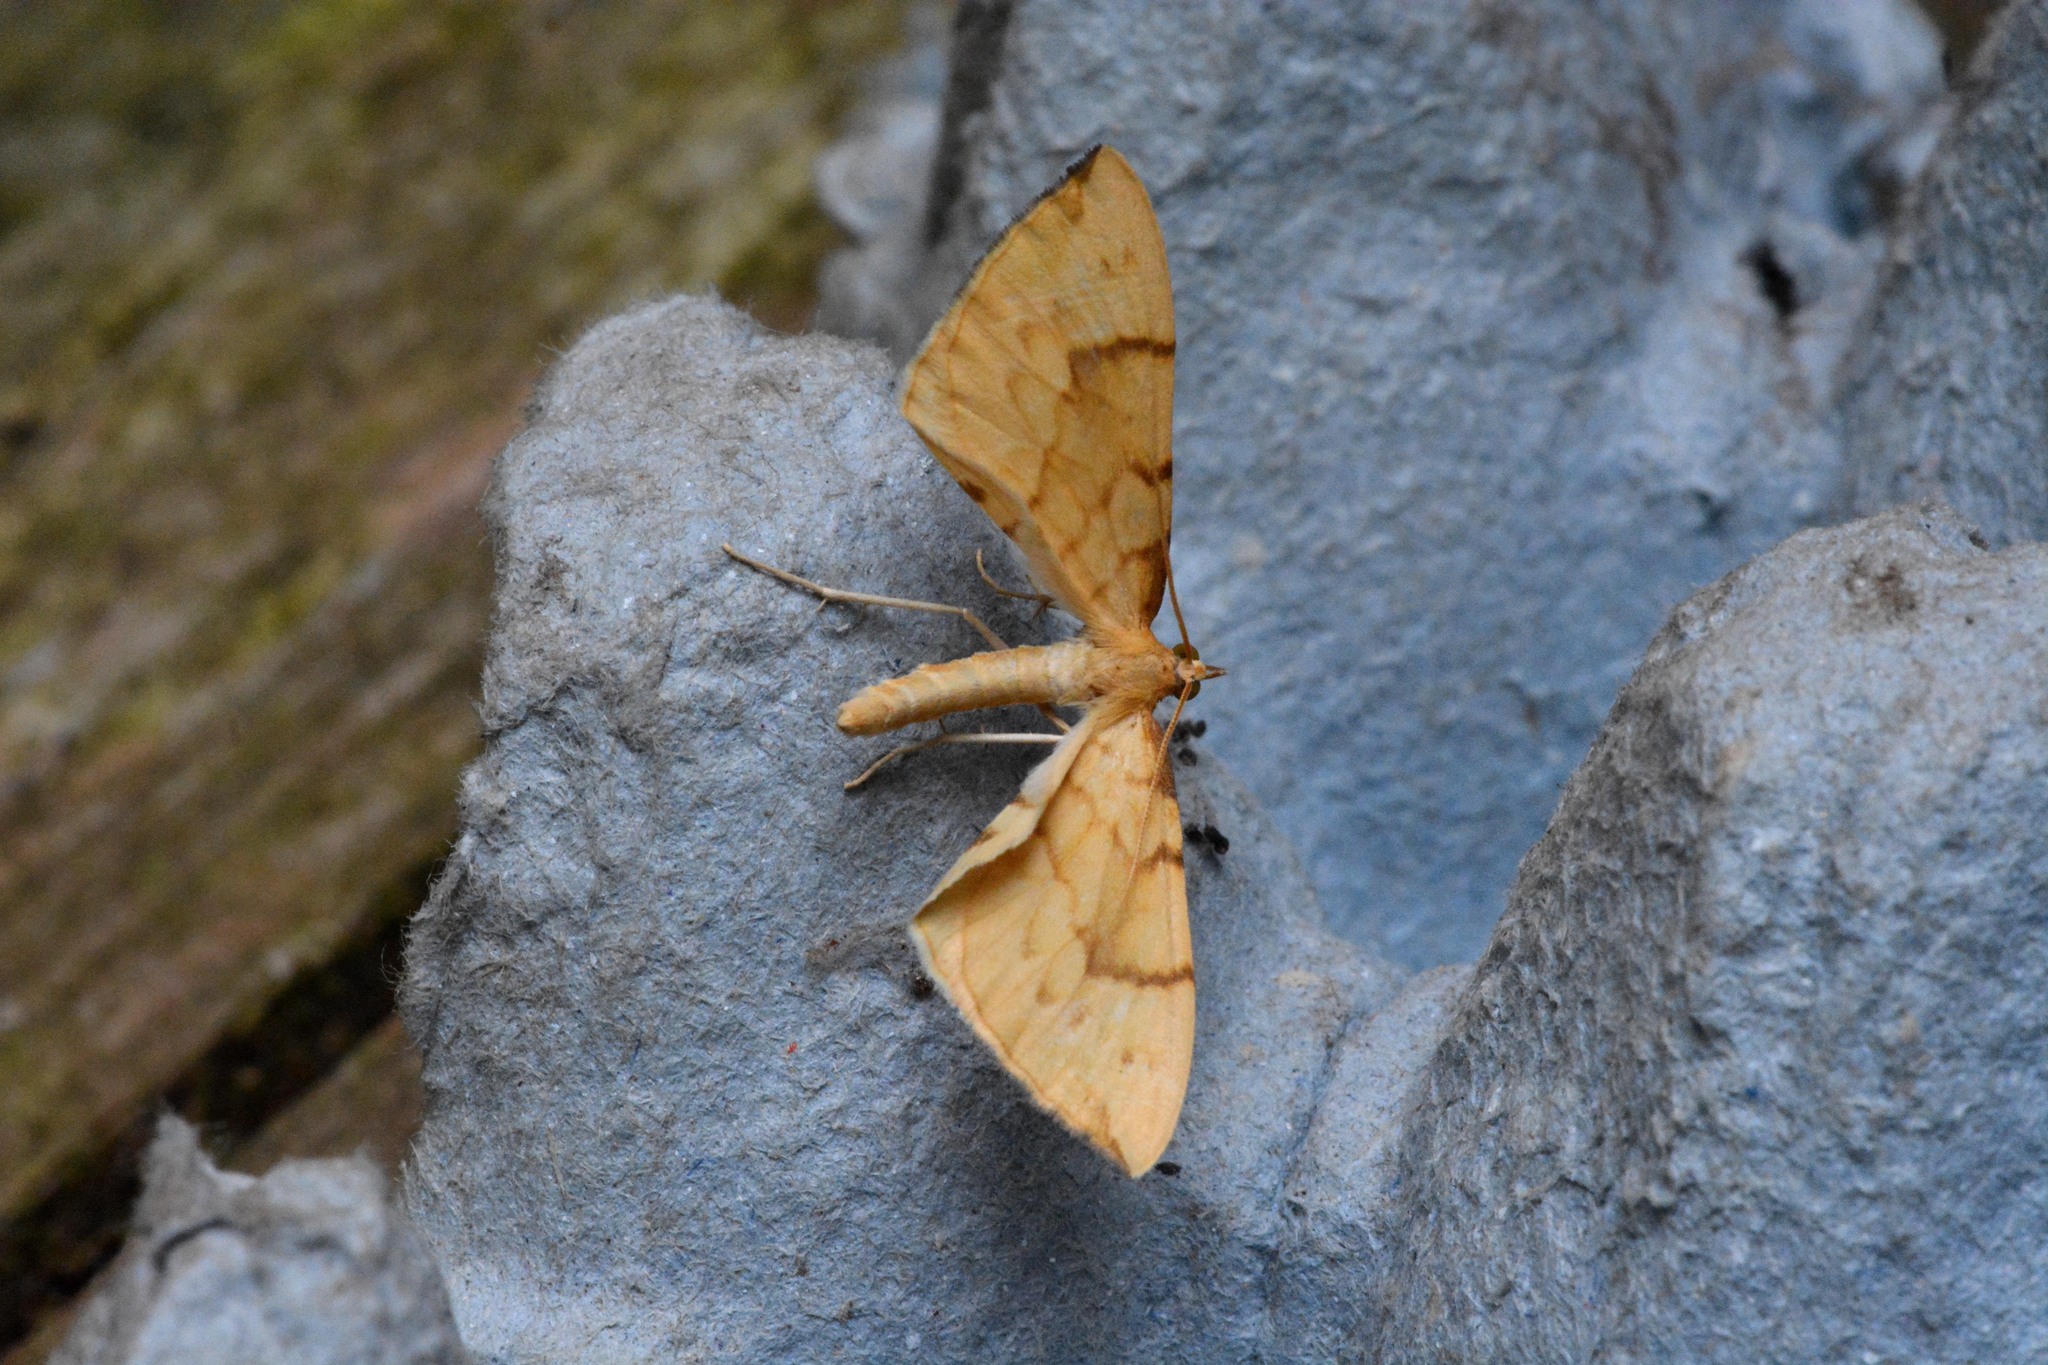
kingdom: Animalia
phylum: Arthropoda
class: Insecta
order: Lepidoptera
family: Geometridae
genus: Eulithis
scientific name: Eulithis pyraliata
